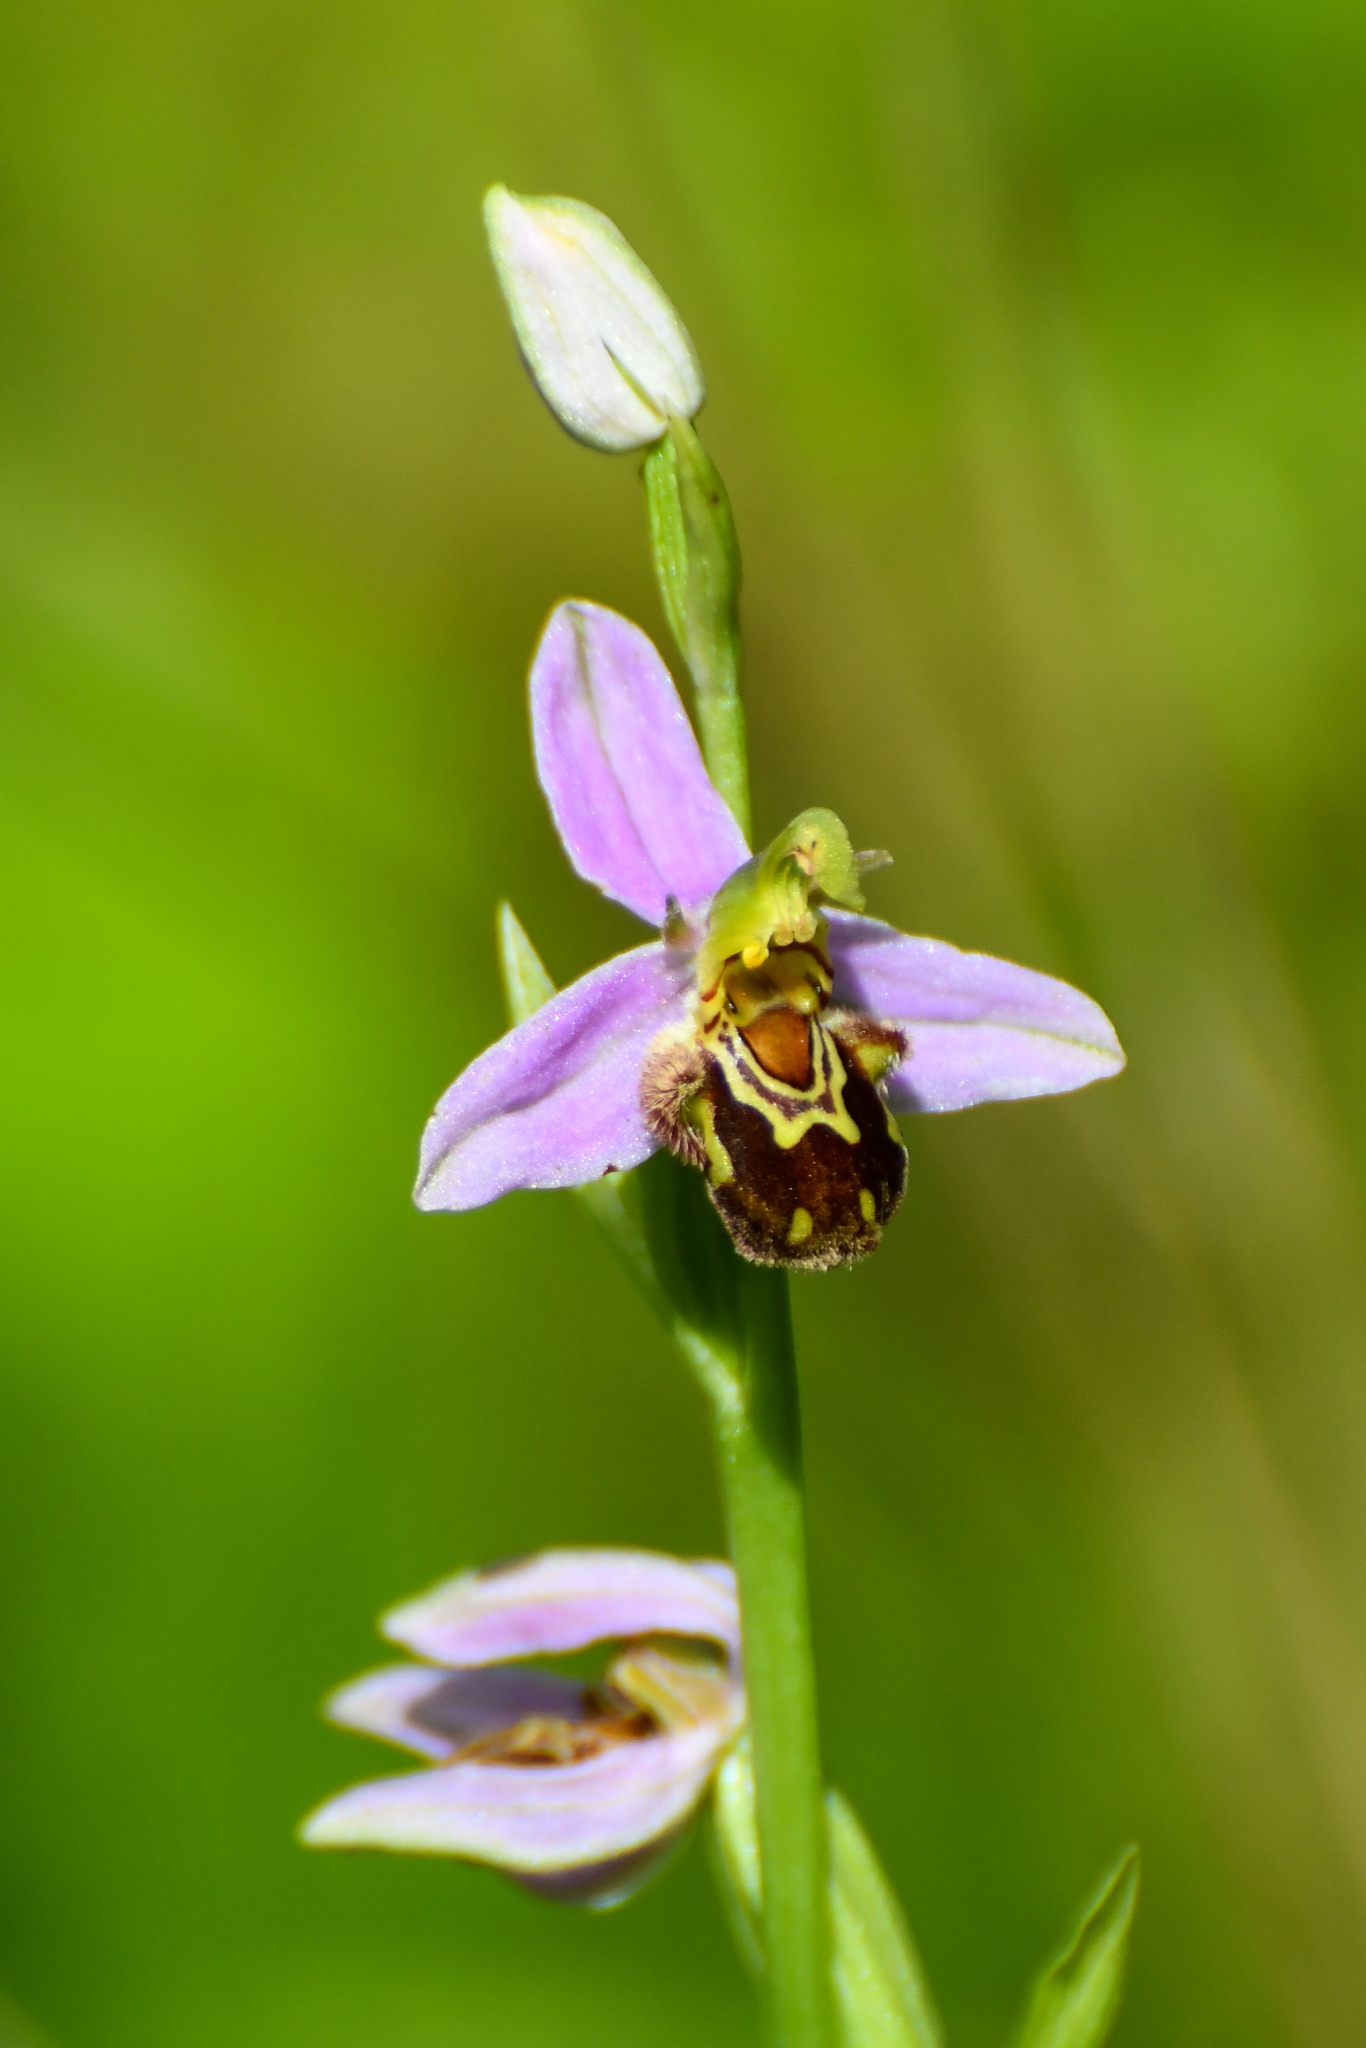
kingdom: Plantae
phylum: Tracheophyta
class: Liliopsida
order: Asparagales
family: Orchidaceae
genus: Ophrys
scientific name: Ophrys apifera
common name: Bee orchid
